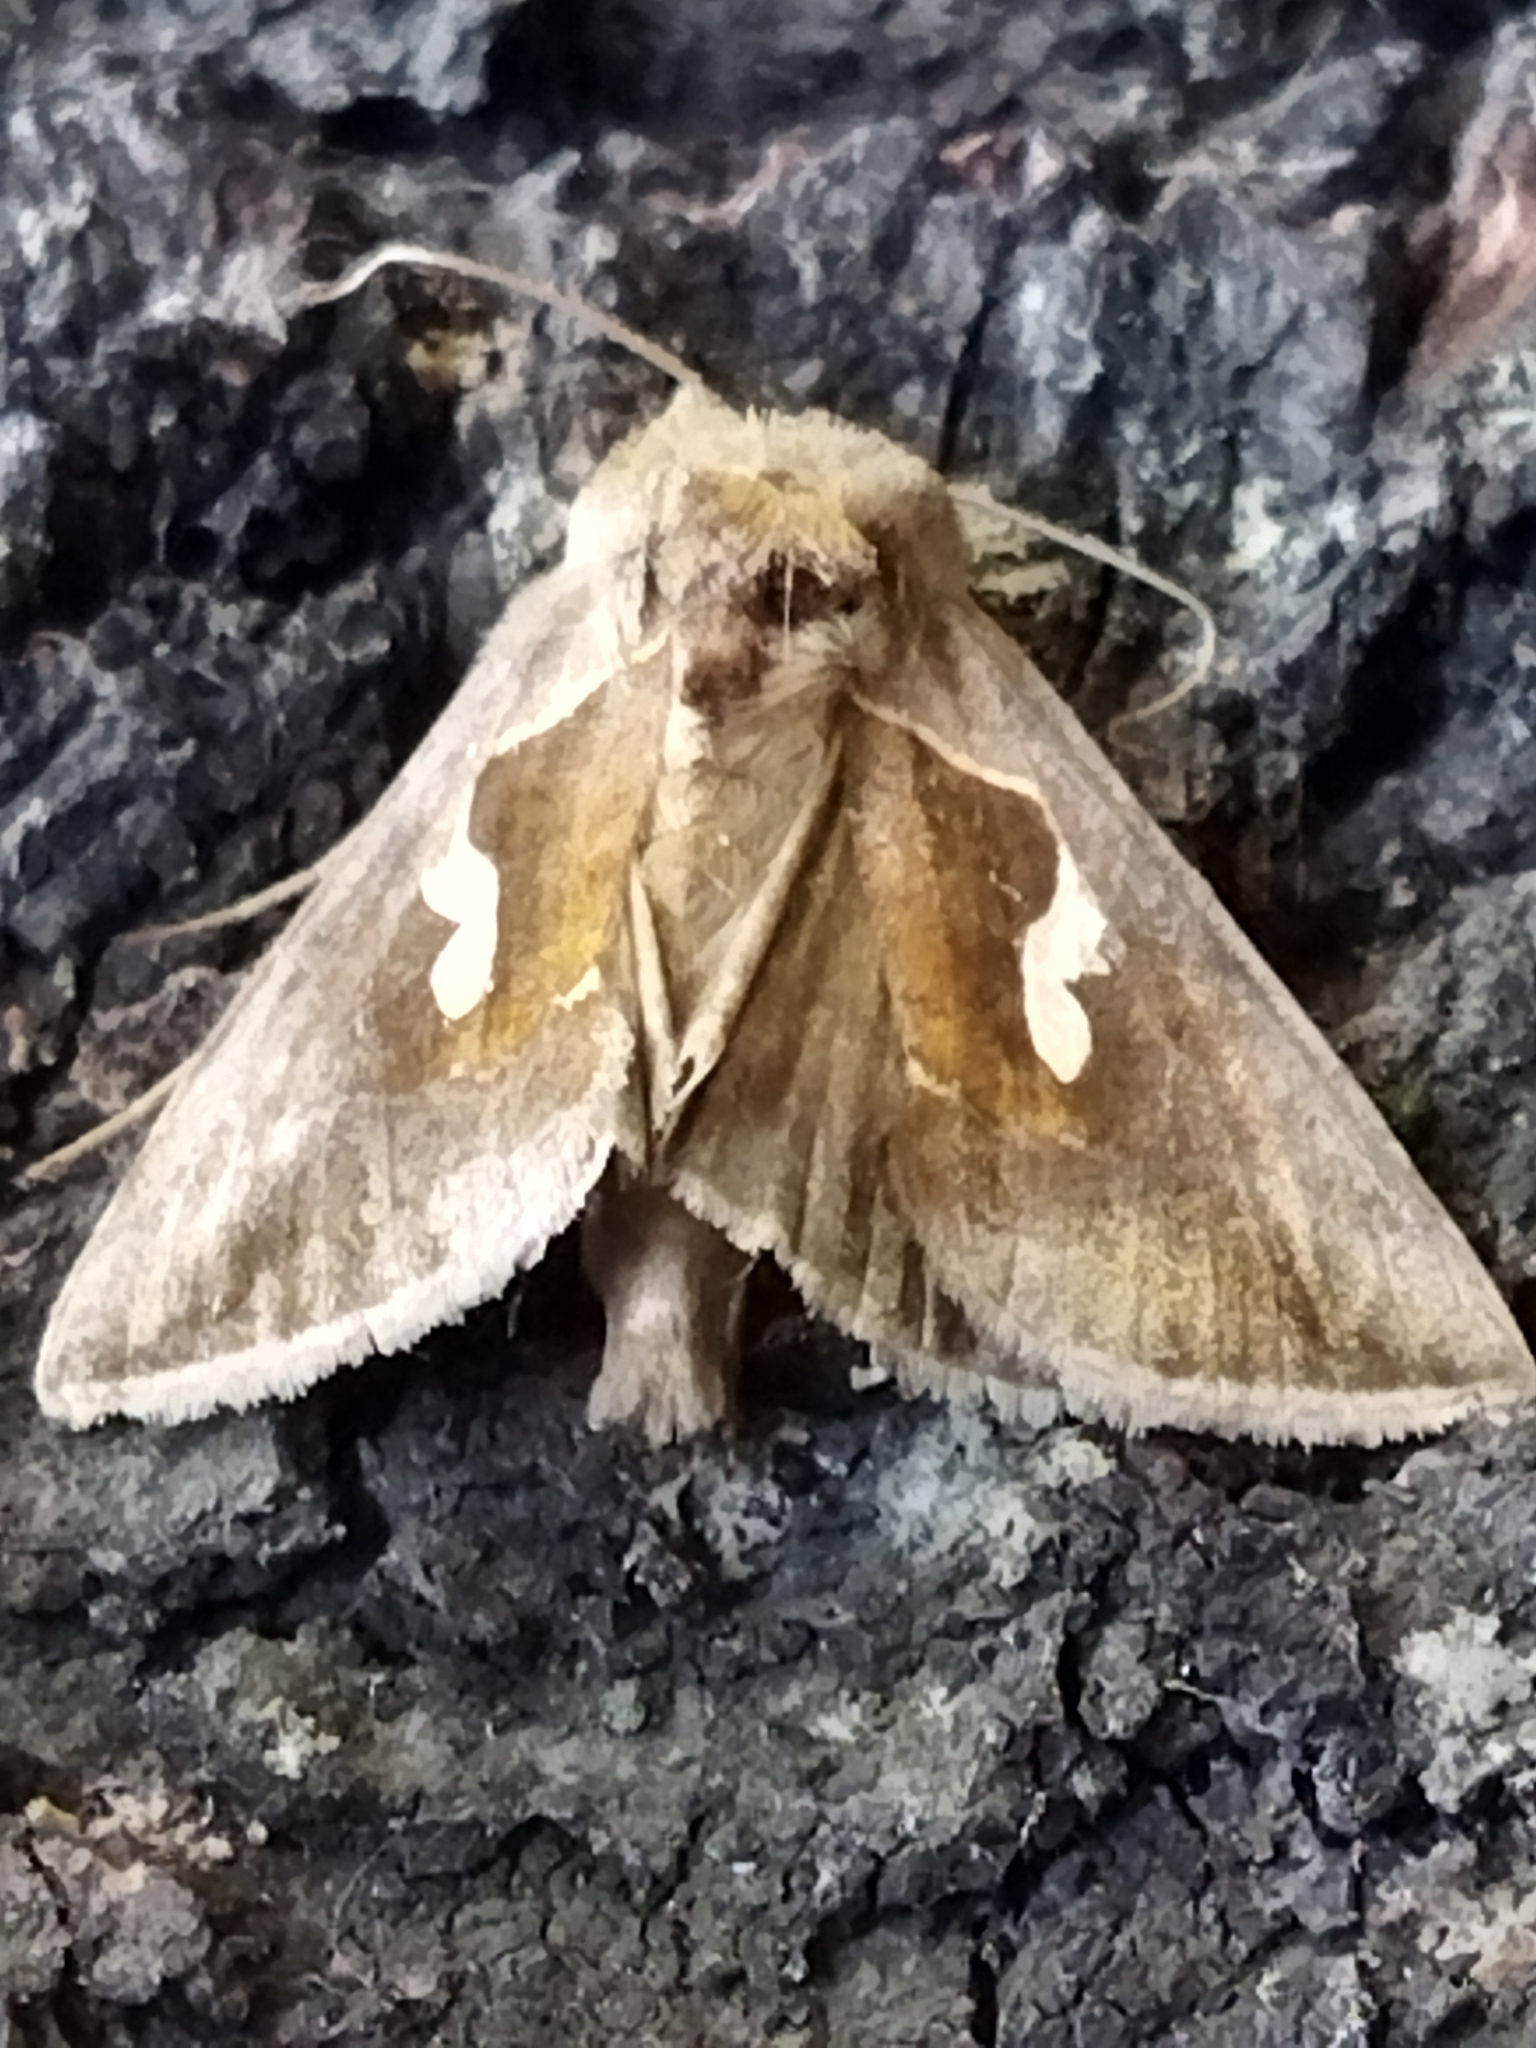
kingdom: Animalia
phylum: Arthropoda
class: Insecta
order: Lepidoptera
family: Noctuidae
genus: Macdunnoughia
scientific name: Macdunnoughia confusa
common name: Dewick's plusia
